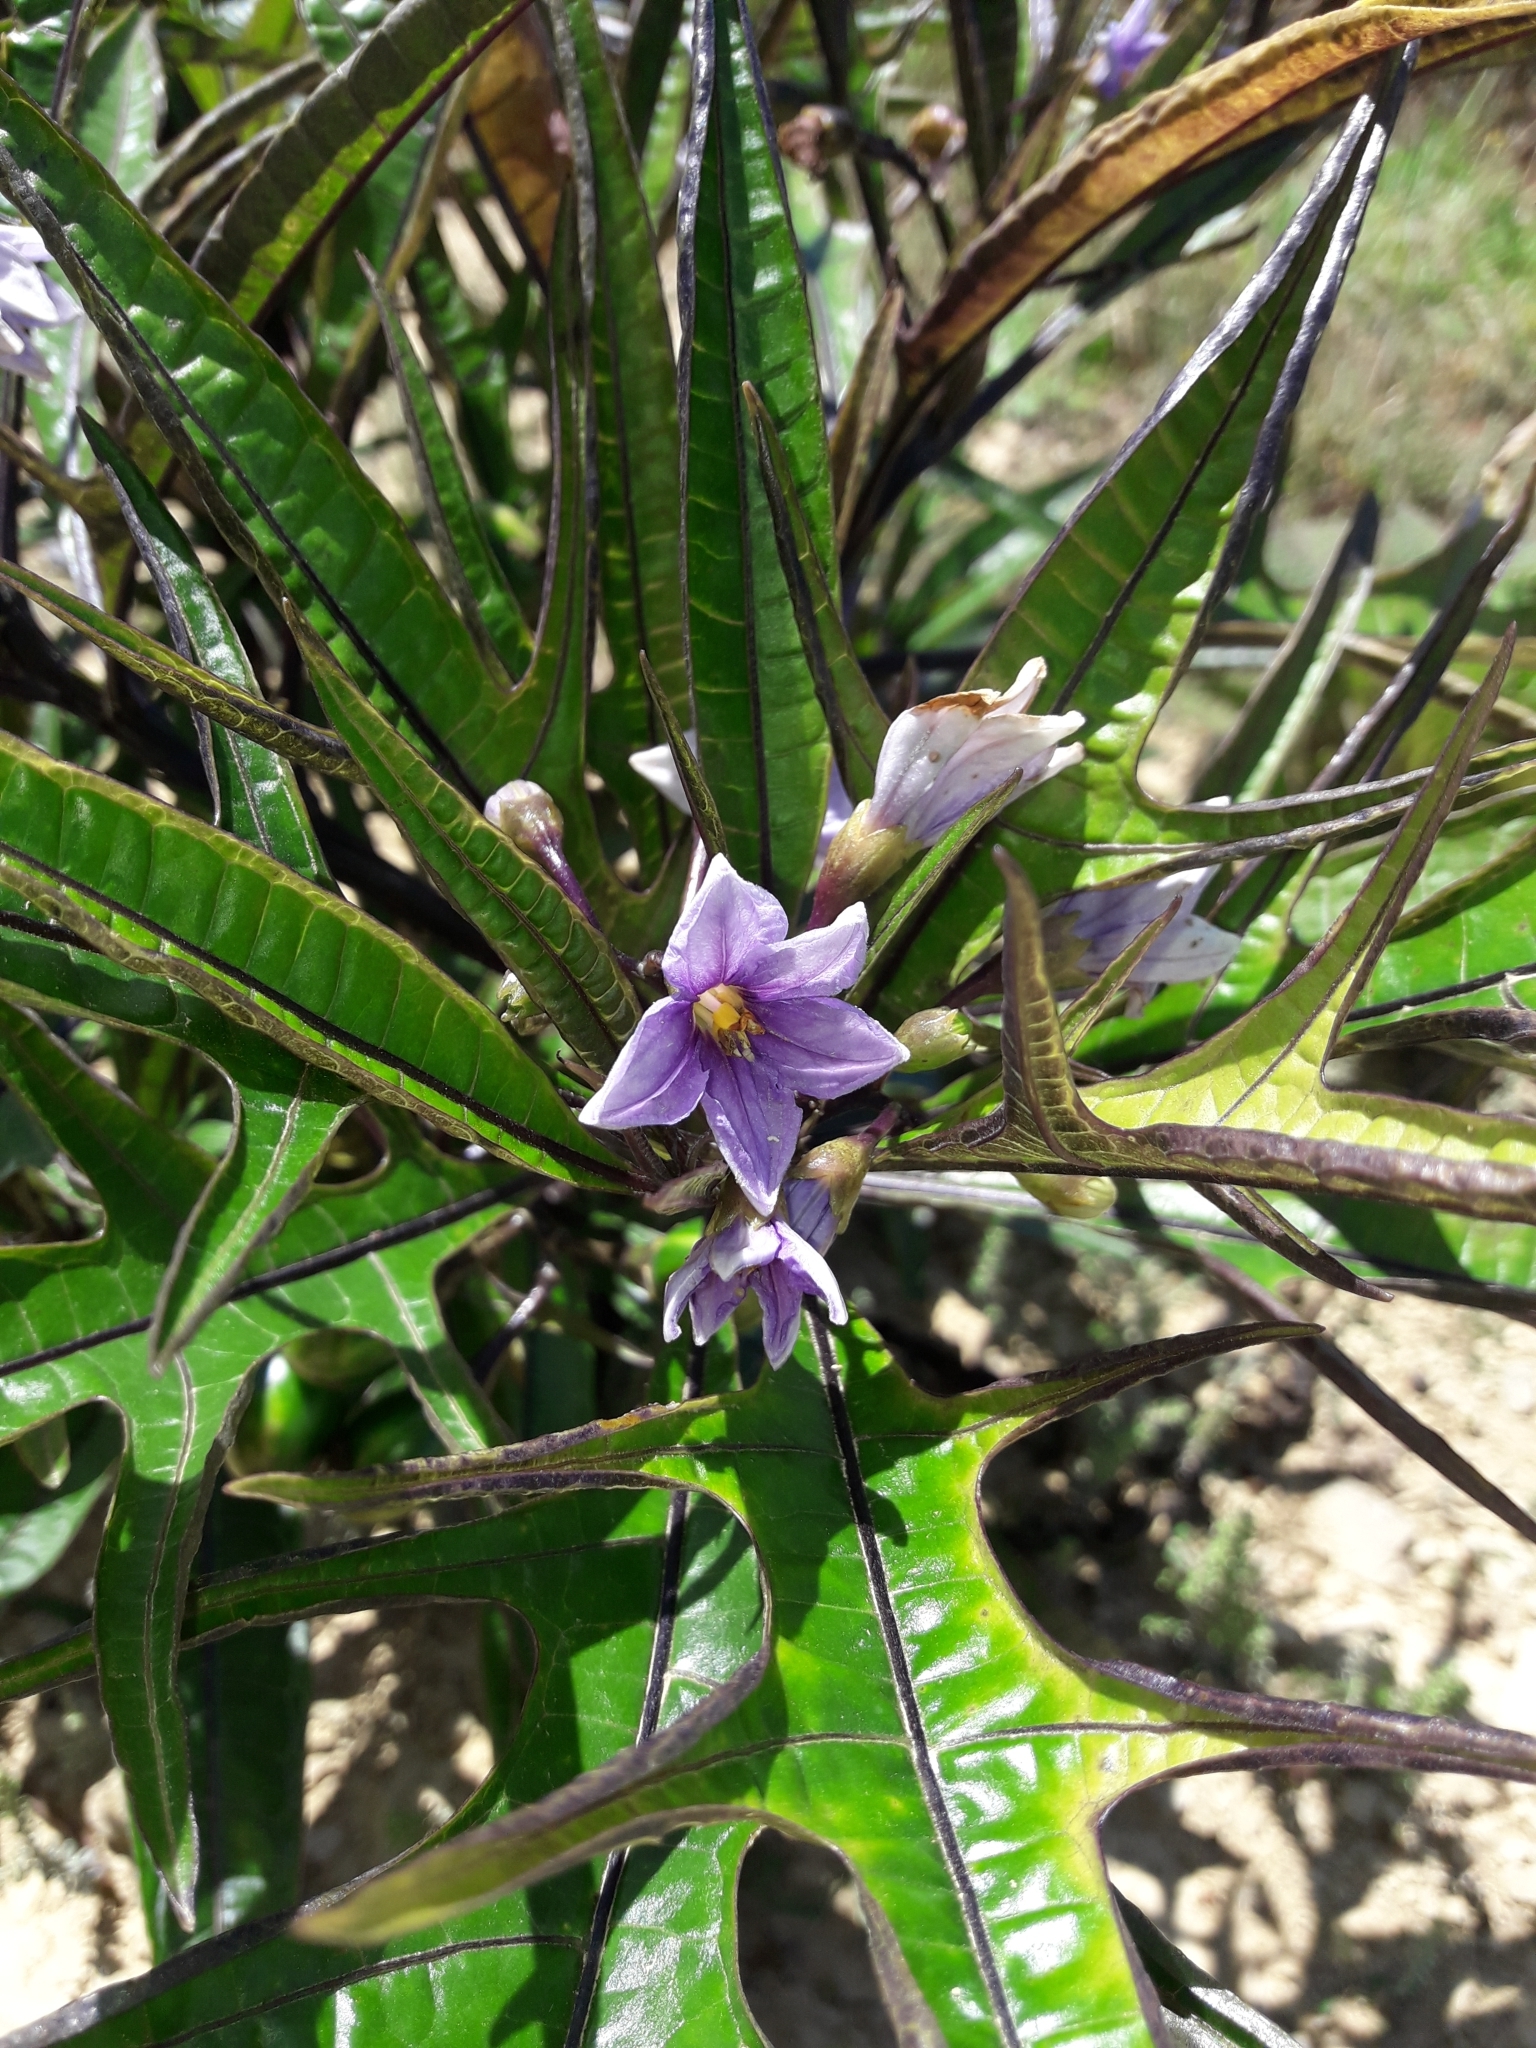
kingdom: Plantae
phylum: Tracheophyta
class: Magnoliopsida
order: Solanales
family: Solanaceae
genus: Solanum
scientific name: Solanum aviculare
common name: New zealand nightshade
